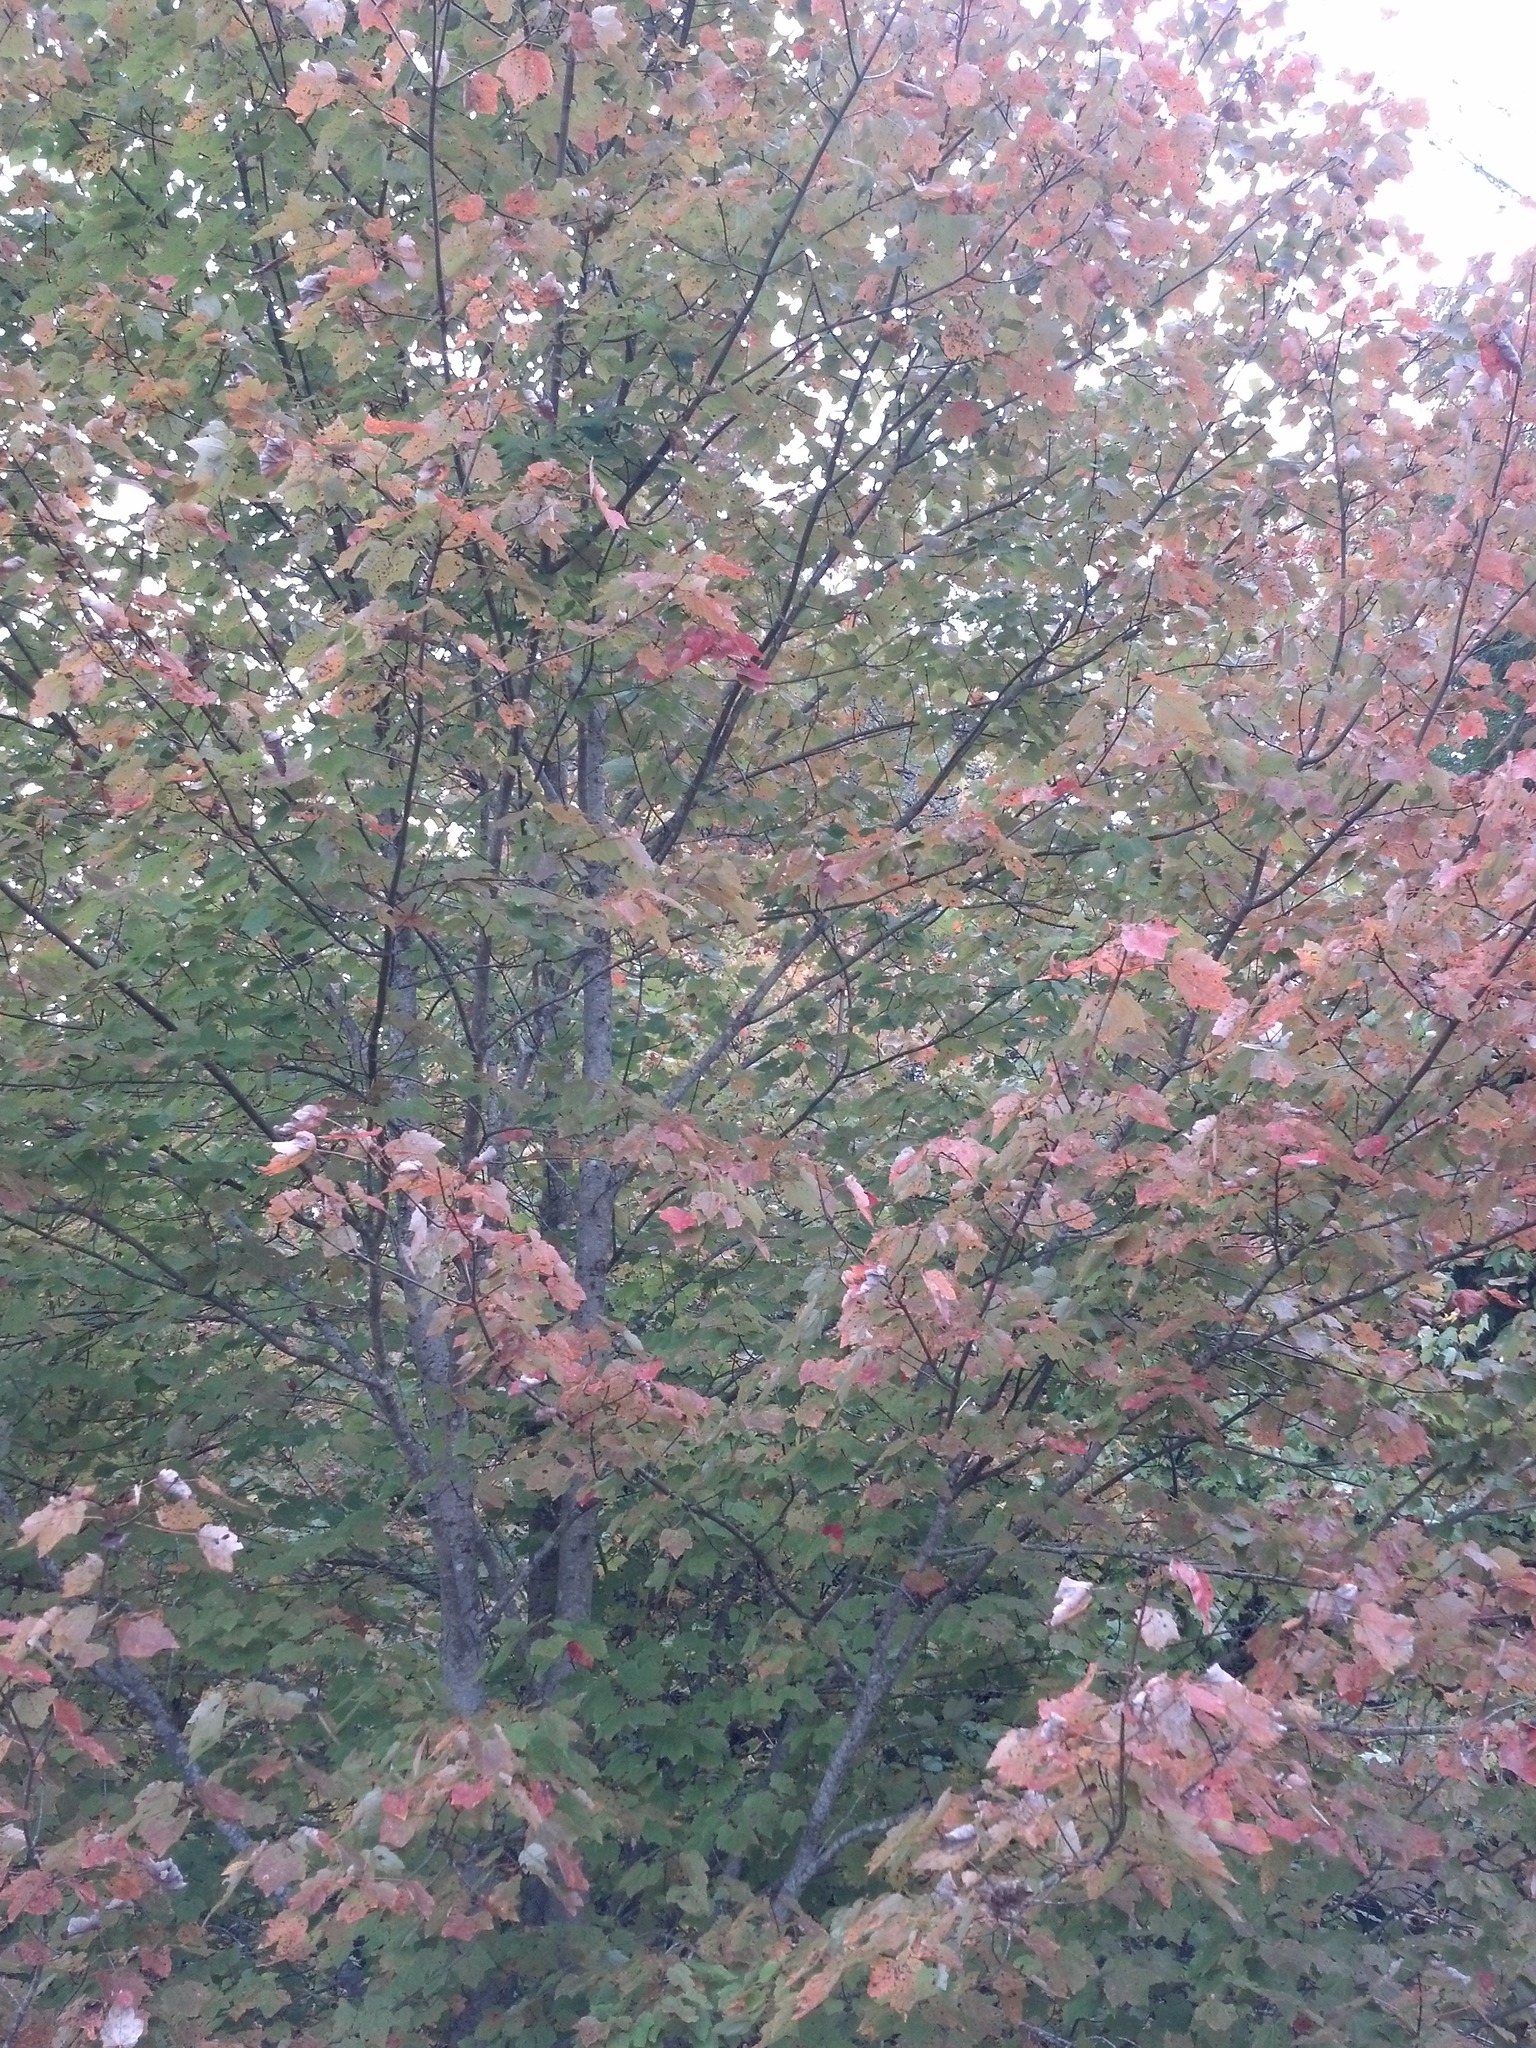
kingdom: Plantae
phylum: Tracheophyta
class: Magnoliopsida
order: Sapindales
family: Sapindaceae
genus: Acer
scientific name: Acer rubrum
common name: Red maple
